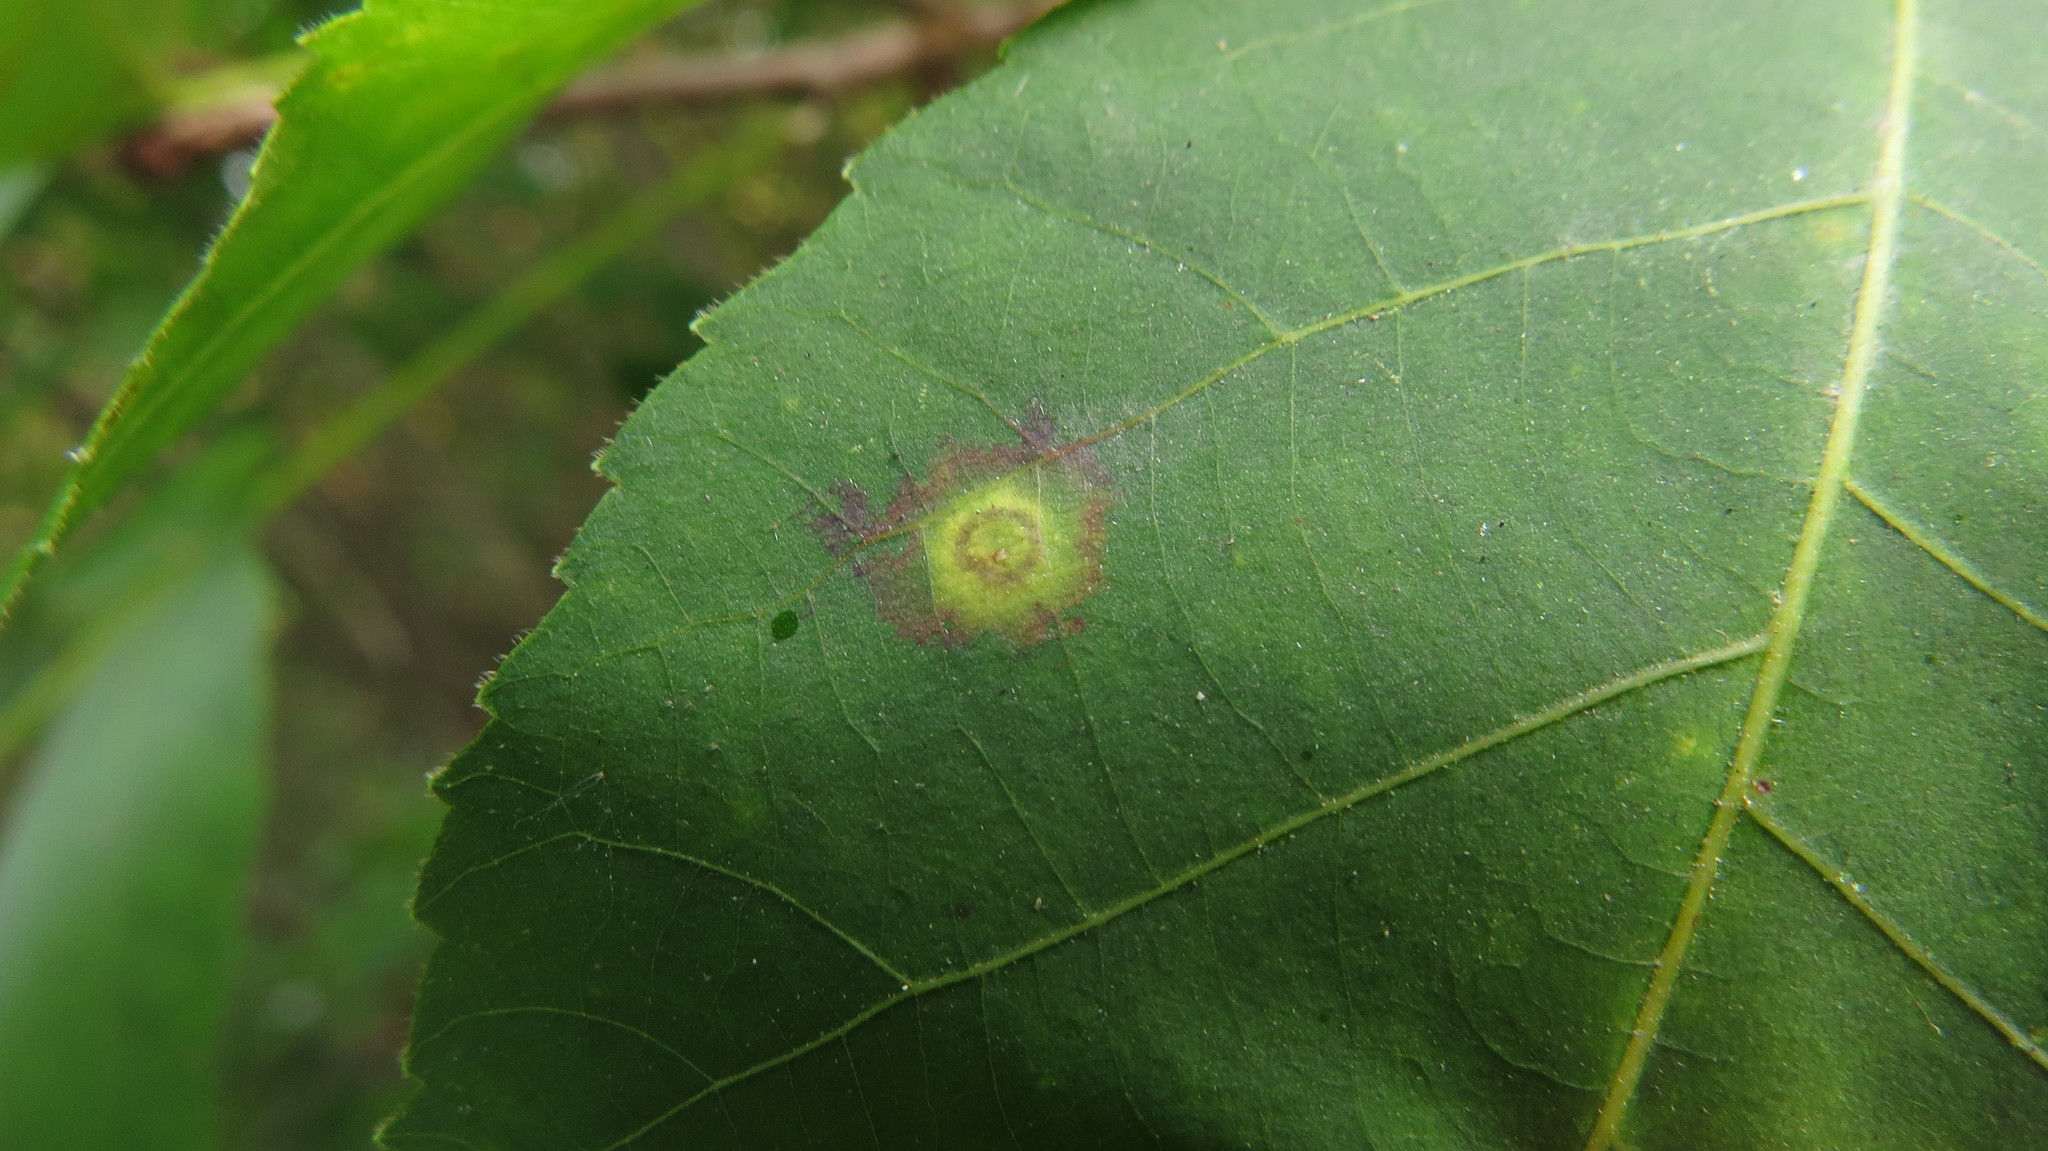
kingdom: Animalia
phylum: Arthropoda
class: Insecta
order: Diptera
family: Cecidomyiidae
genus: Gliaspilota
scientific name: Gliaspilota glutinosa
